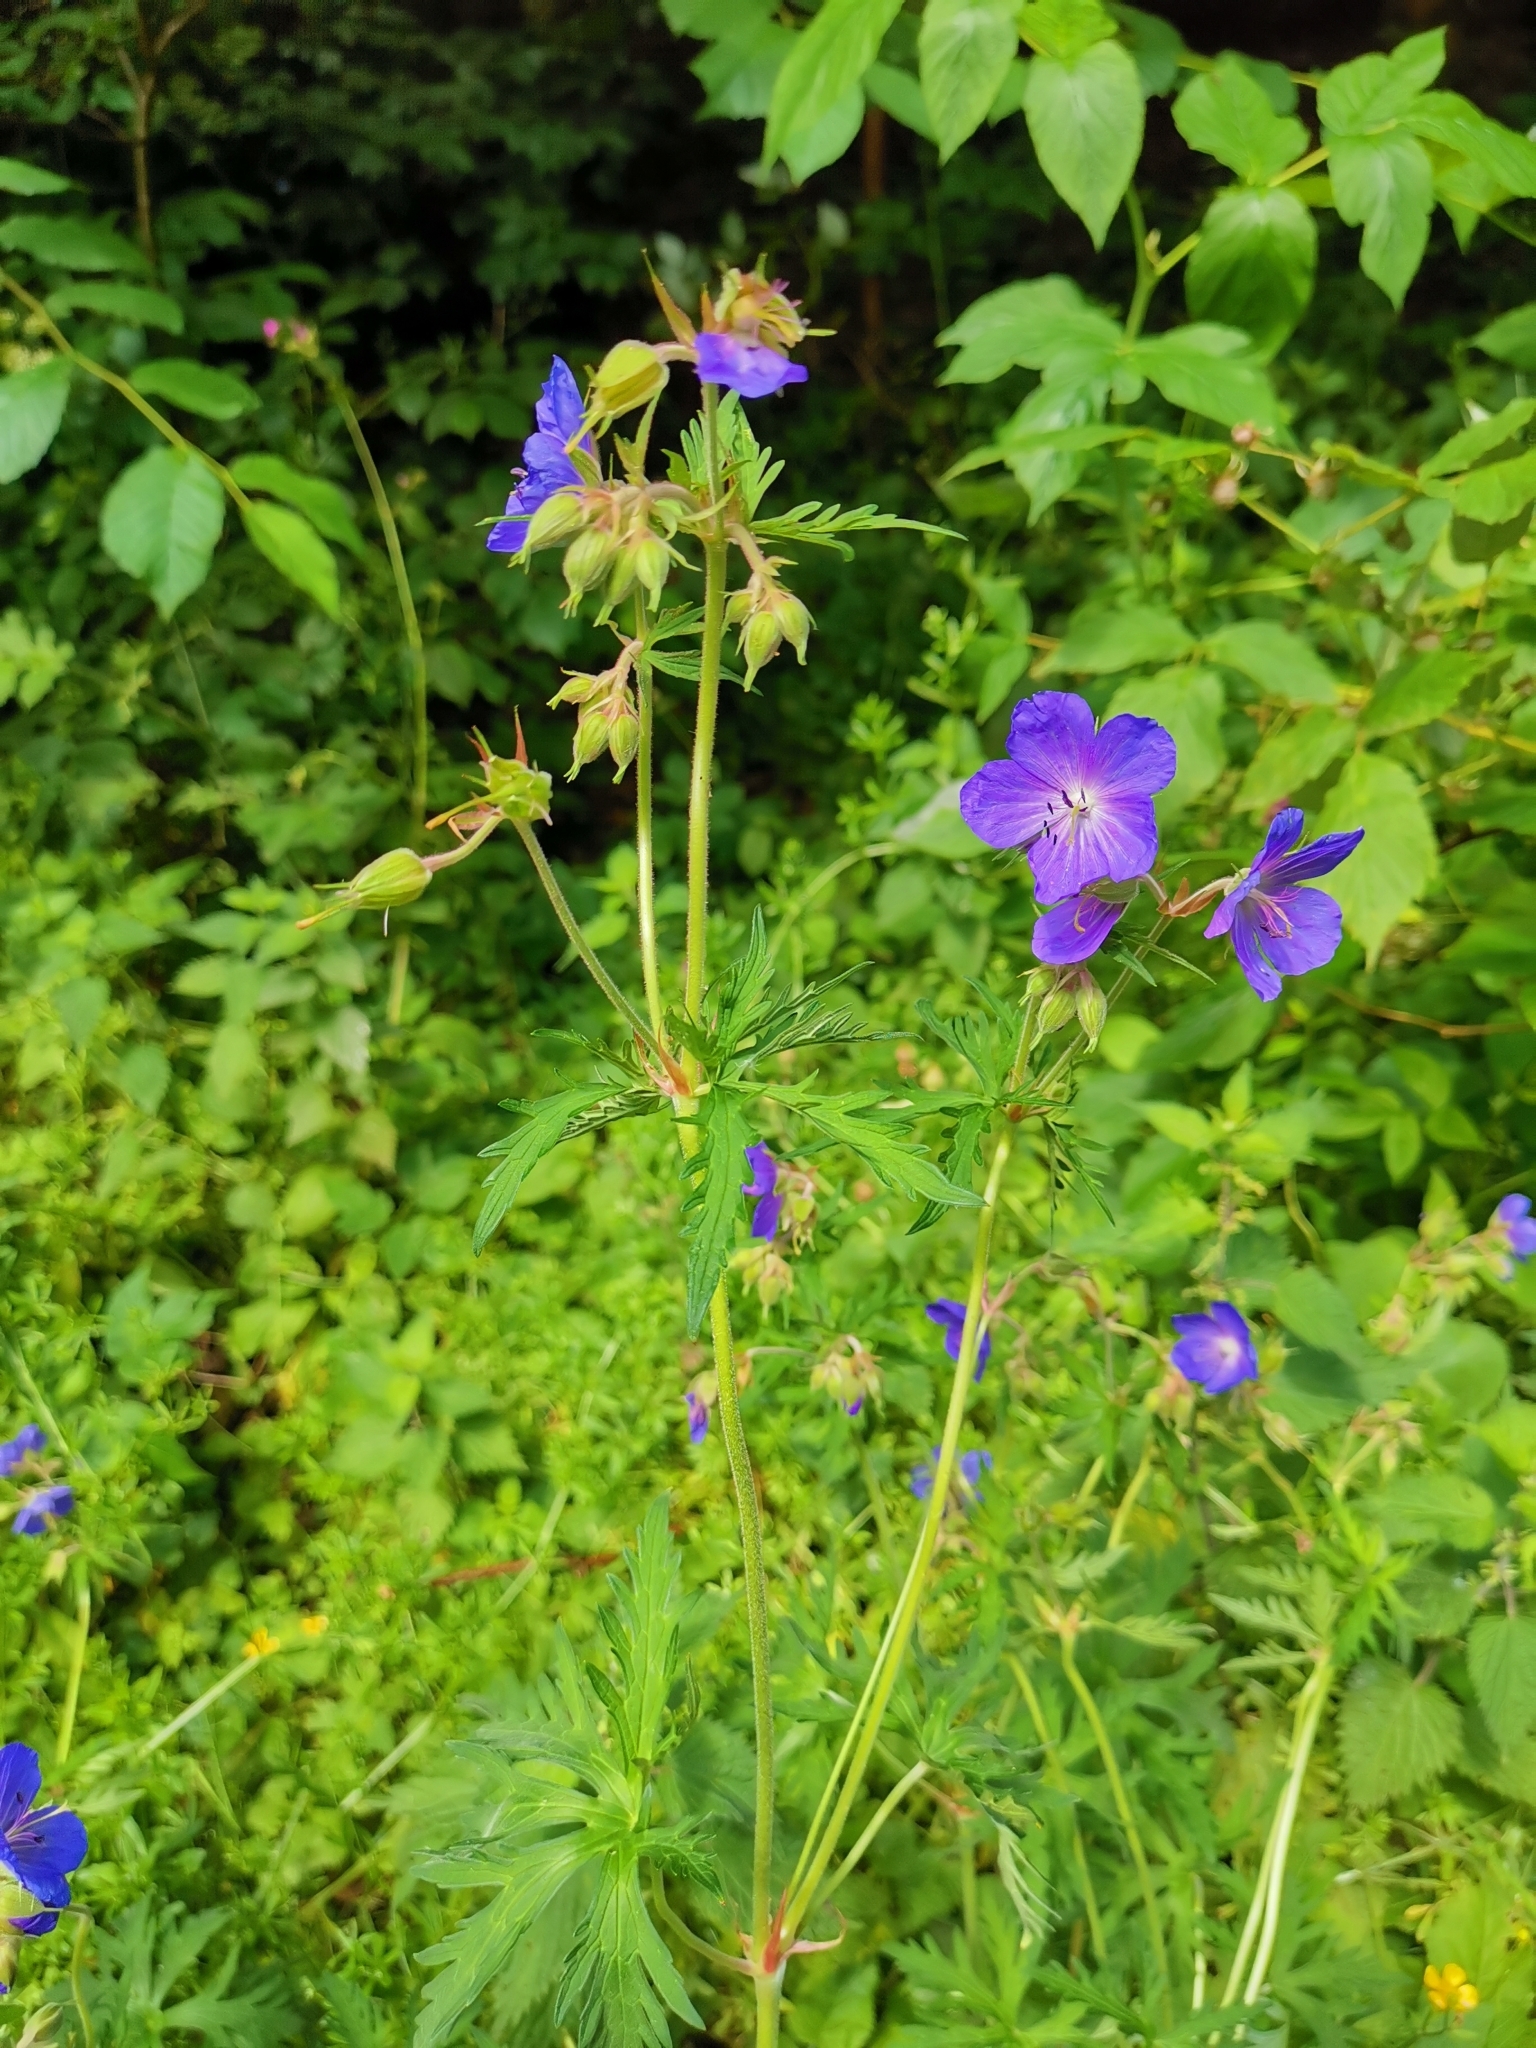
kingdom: Plantae
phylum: Tracheophyta
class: Magnoliopsida
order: Geraniales
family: Geraniaceae
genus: Geranium
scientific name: Geranium pratense
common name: Meadow crane's-bill
